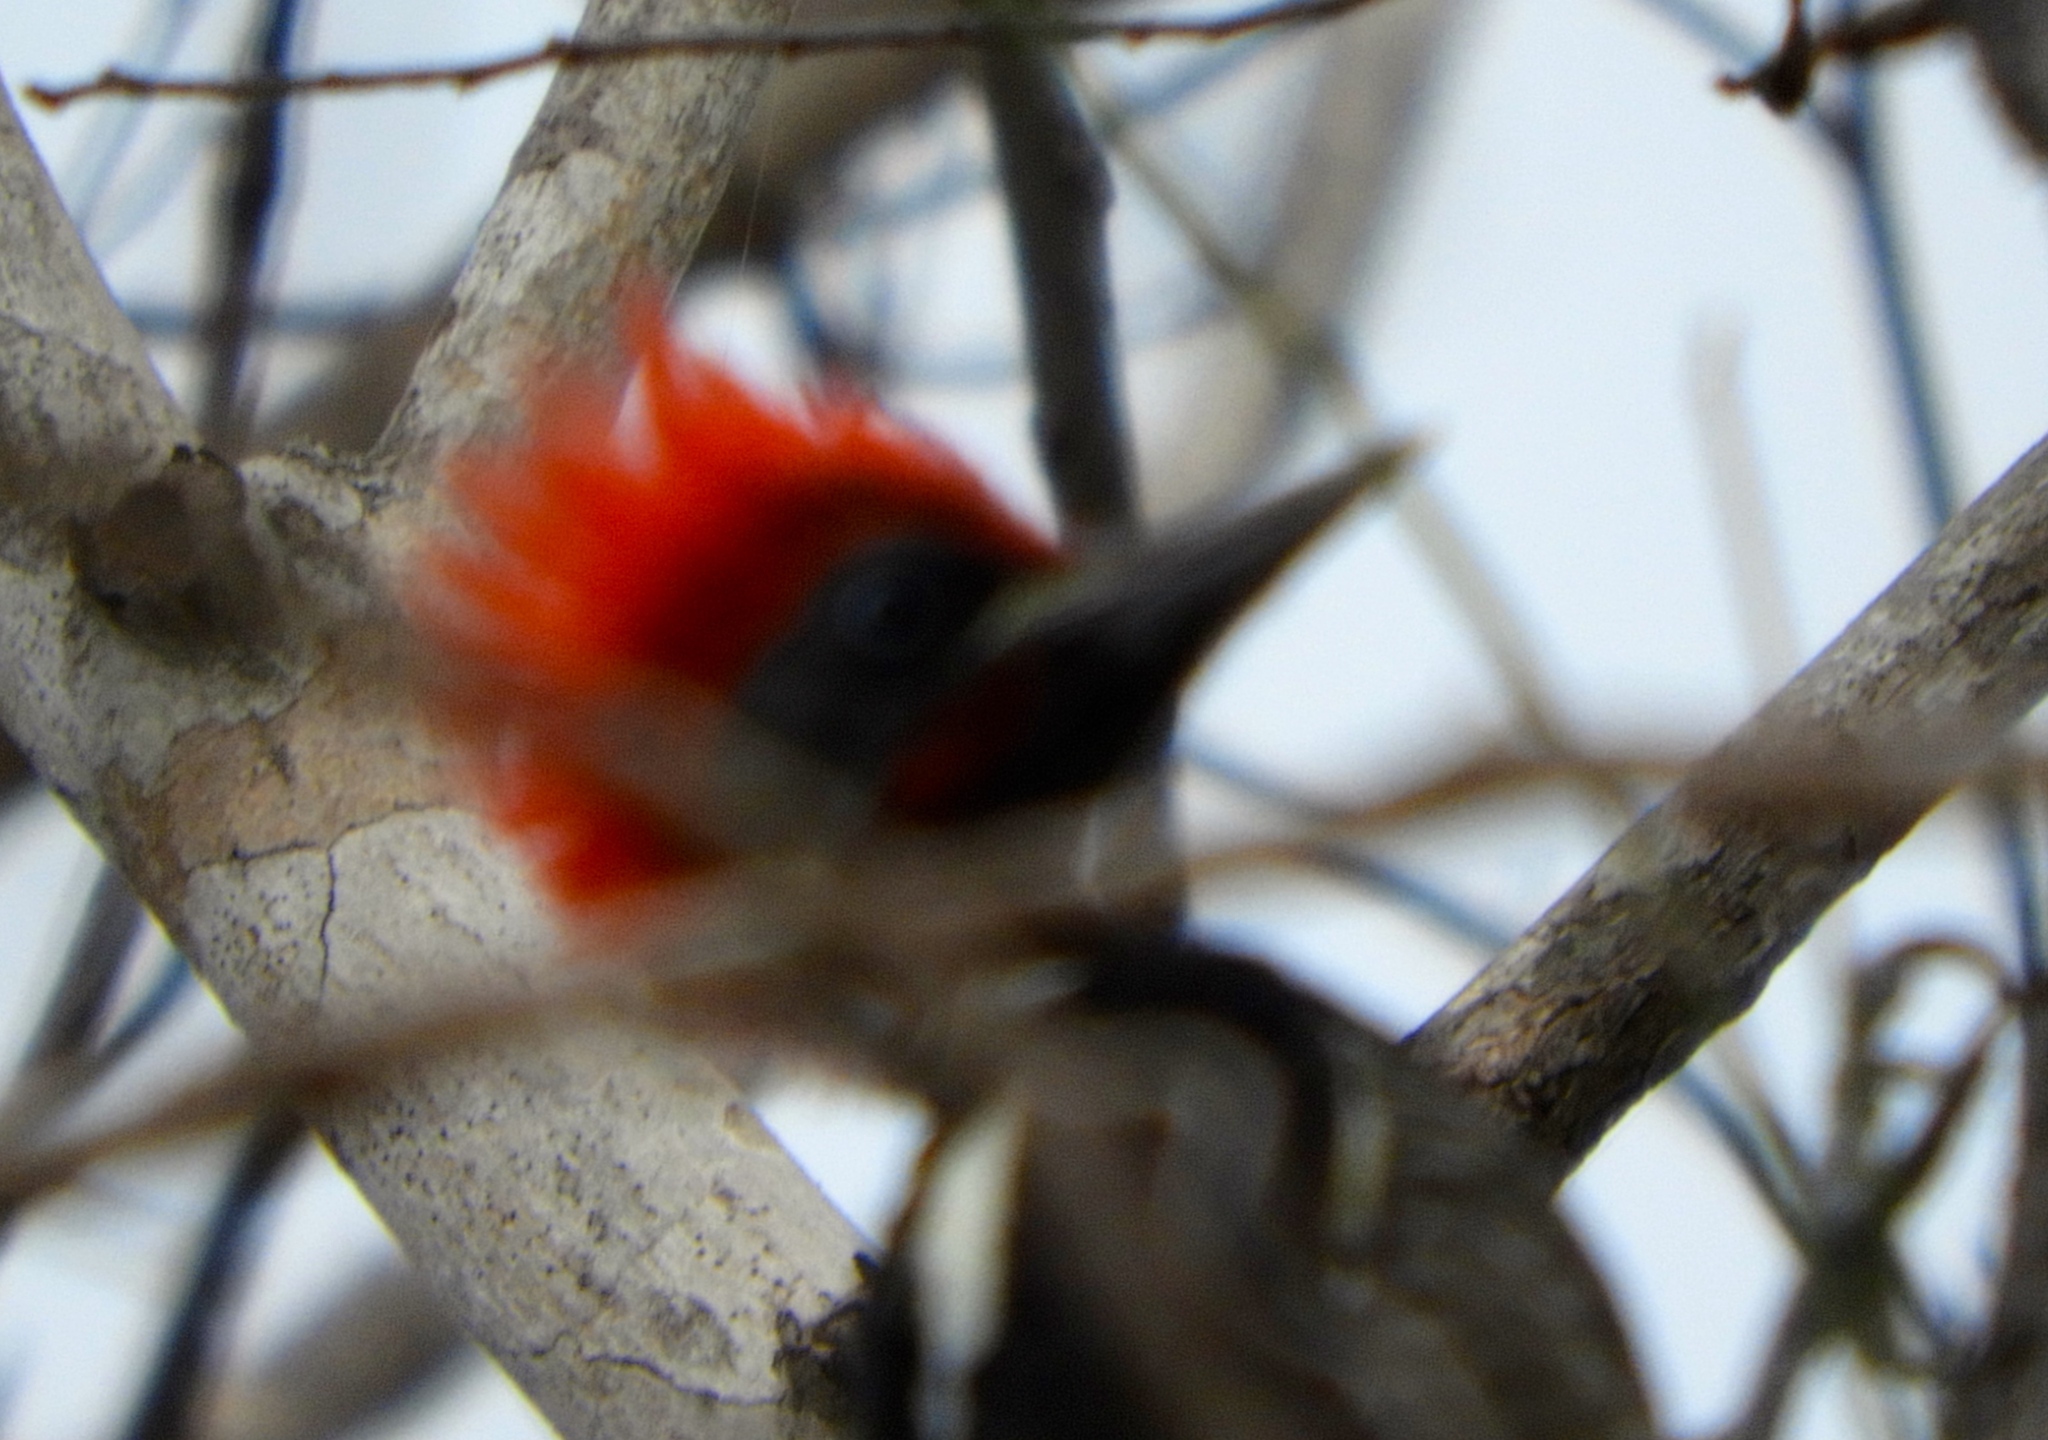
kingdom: Animalia
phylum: Chordata
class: Aves
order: Piciformes
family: Picidae
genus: Dryocopus
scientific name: Dryocopus lineatus
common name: Lineated woodpecker
